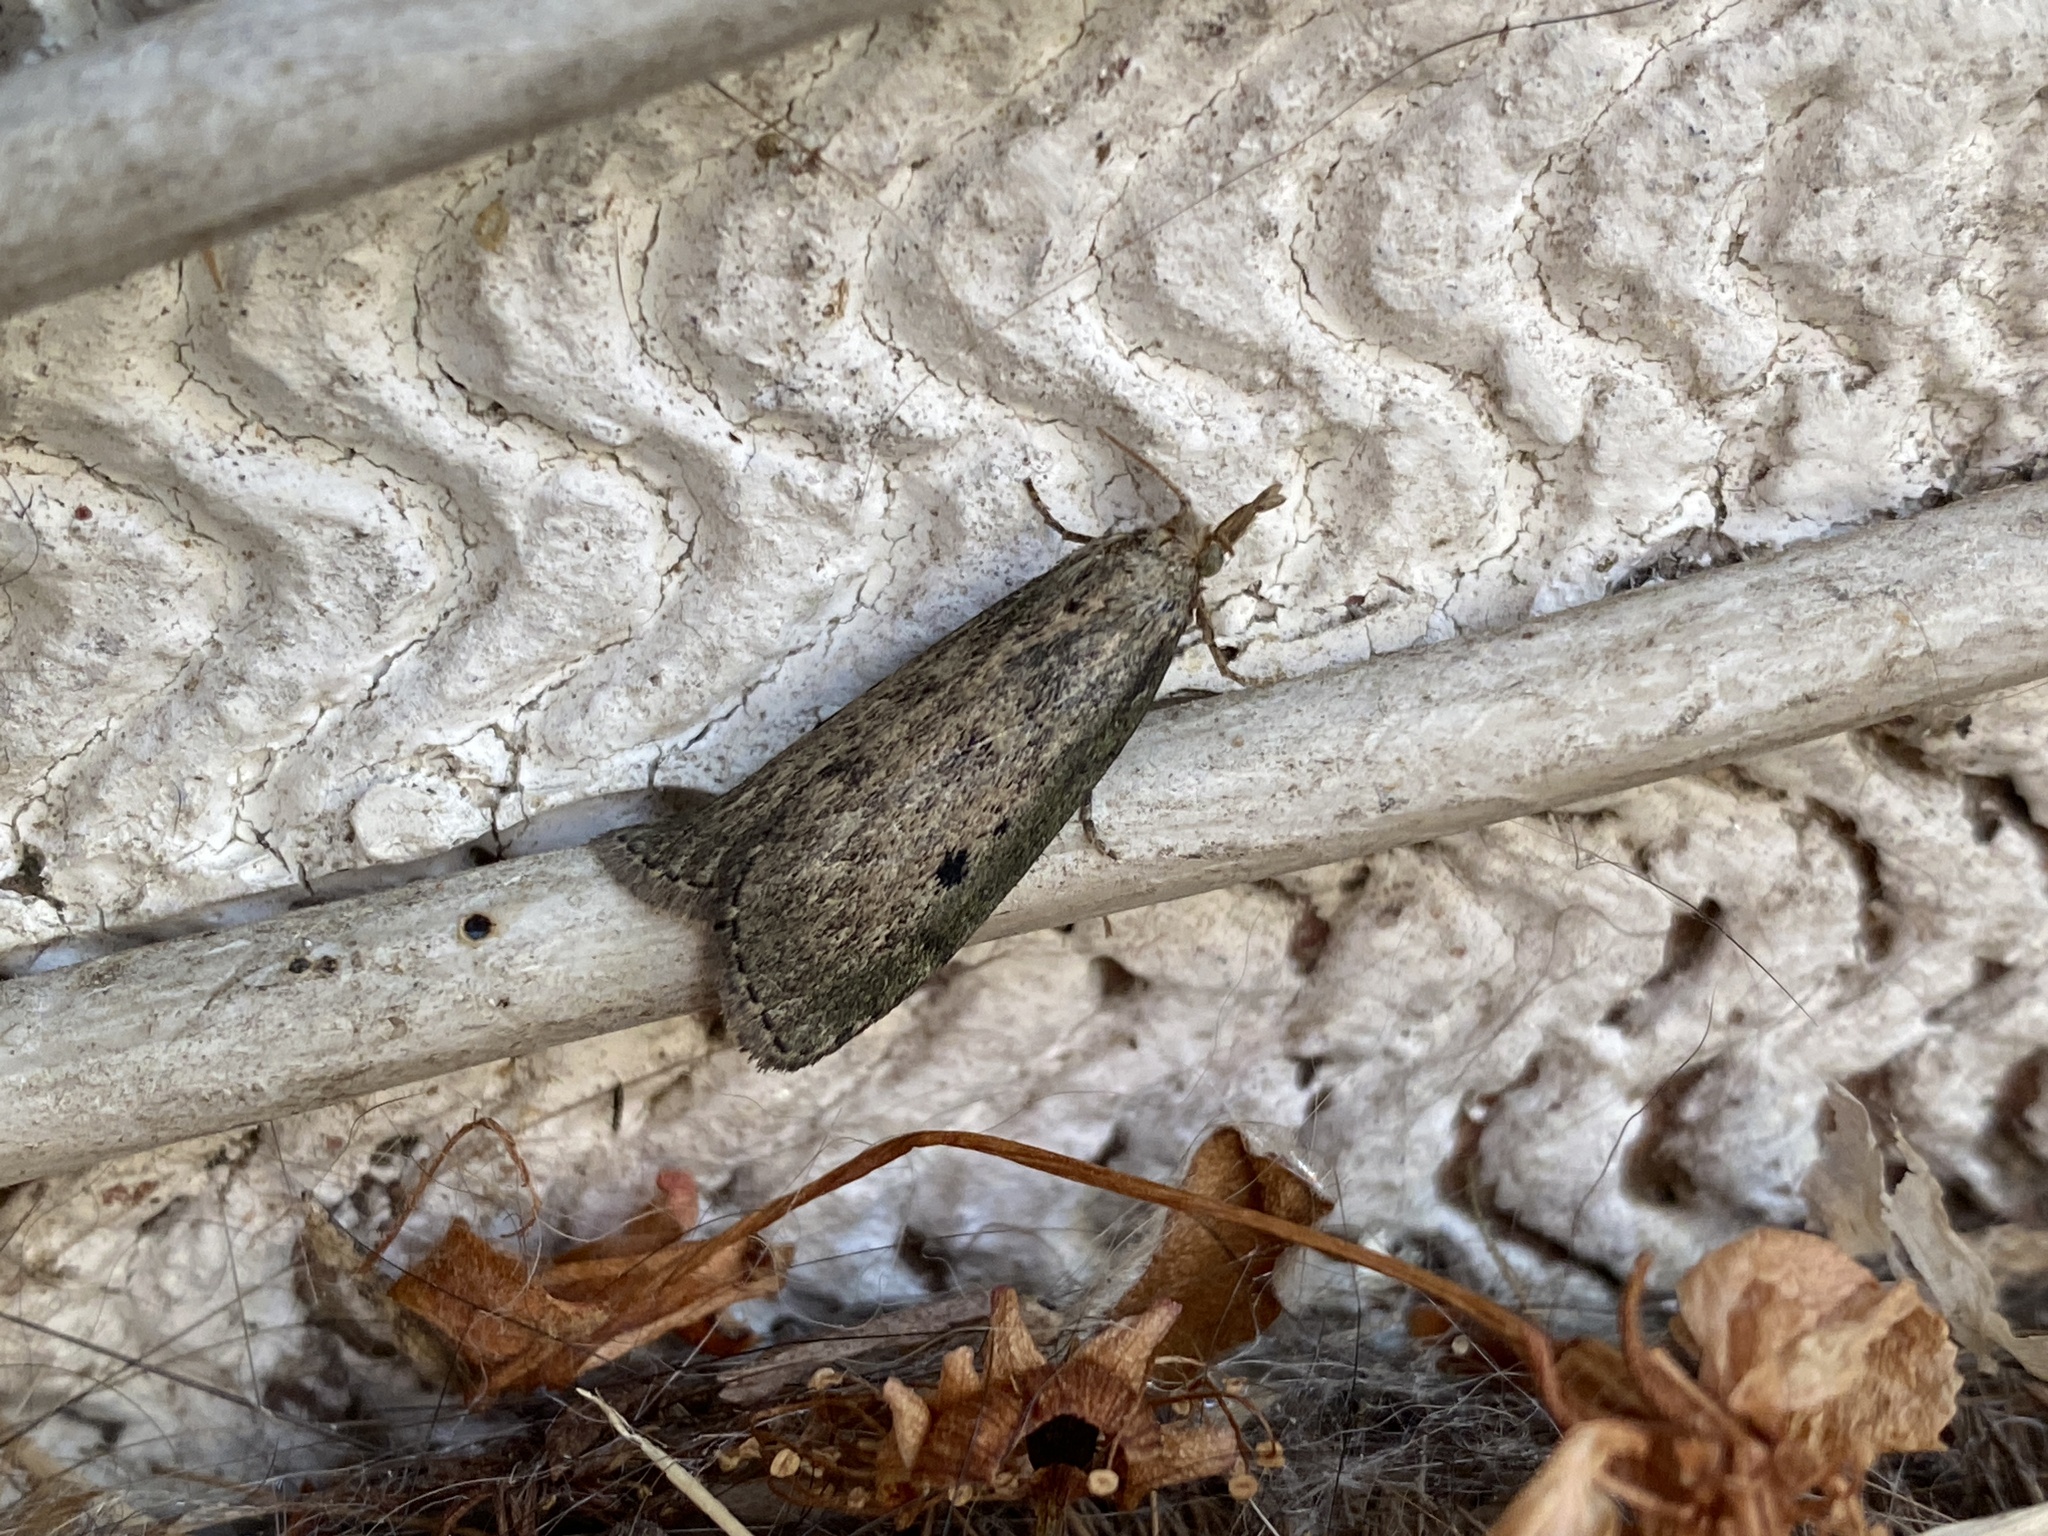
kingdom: Animalia
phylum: Arthropoda
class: Insecta
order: Lepidoptera
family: Pyralidae
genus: Aphomia
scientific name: Aphomia sociella
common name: Bee moth
